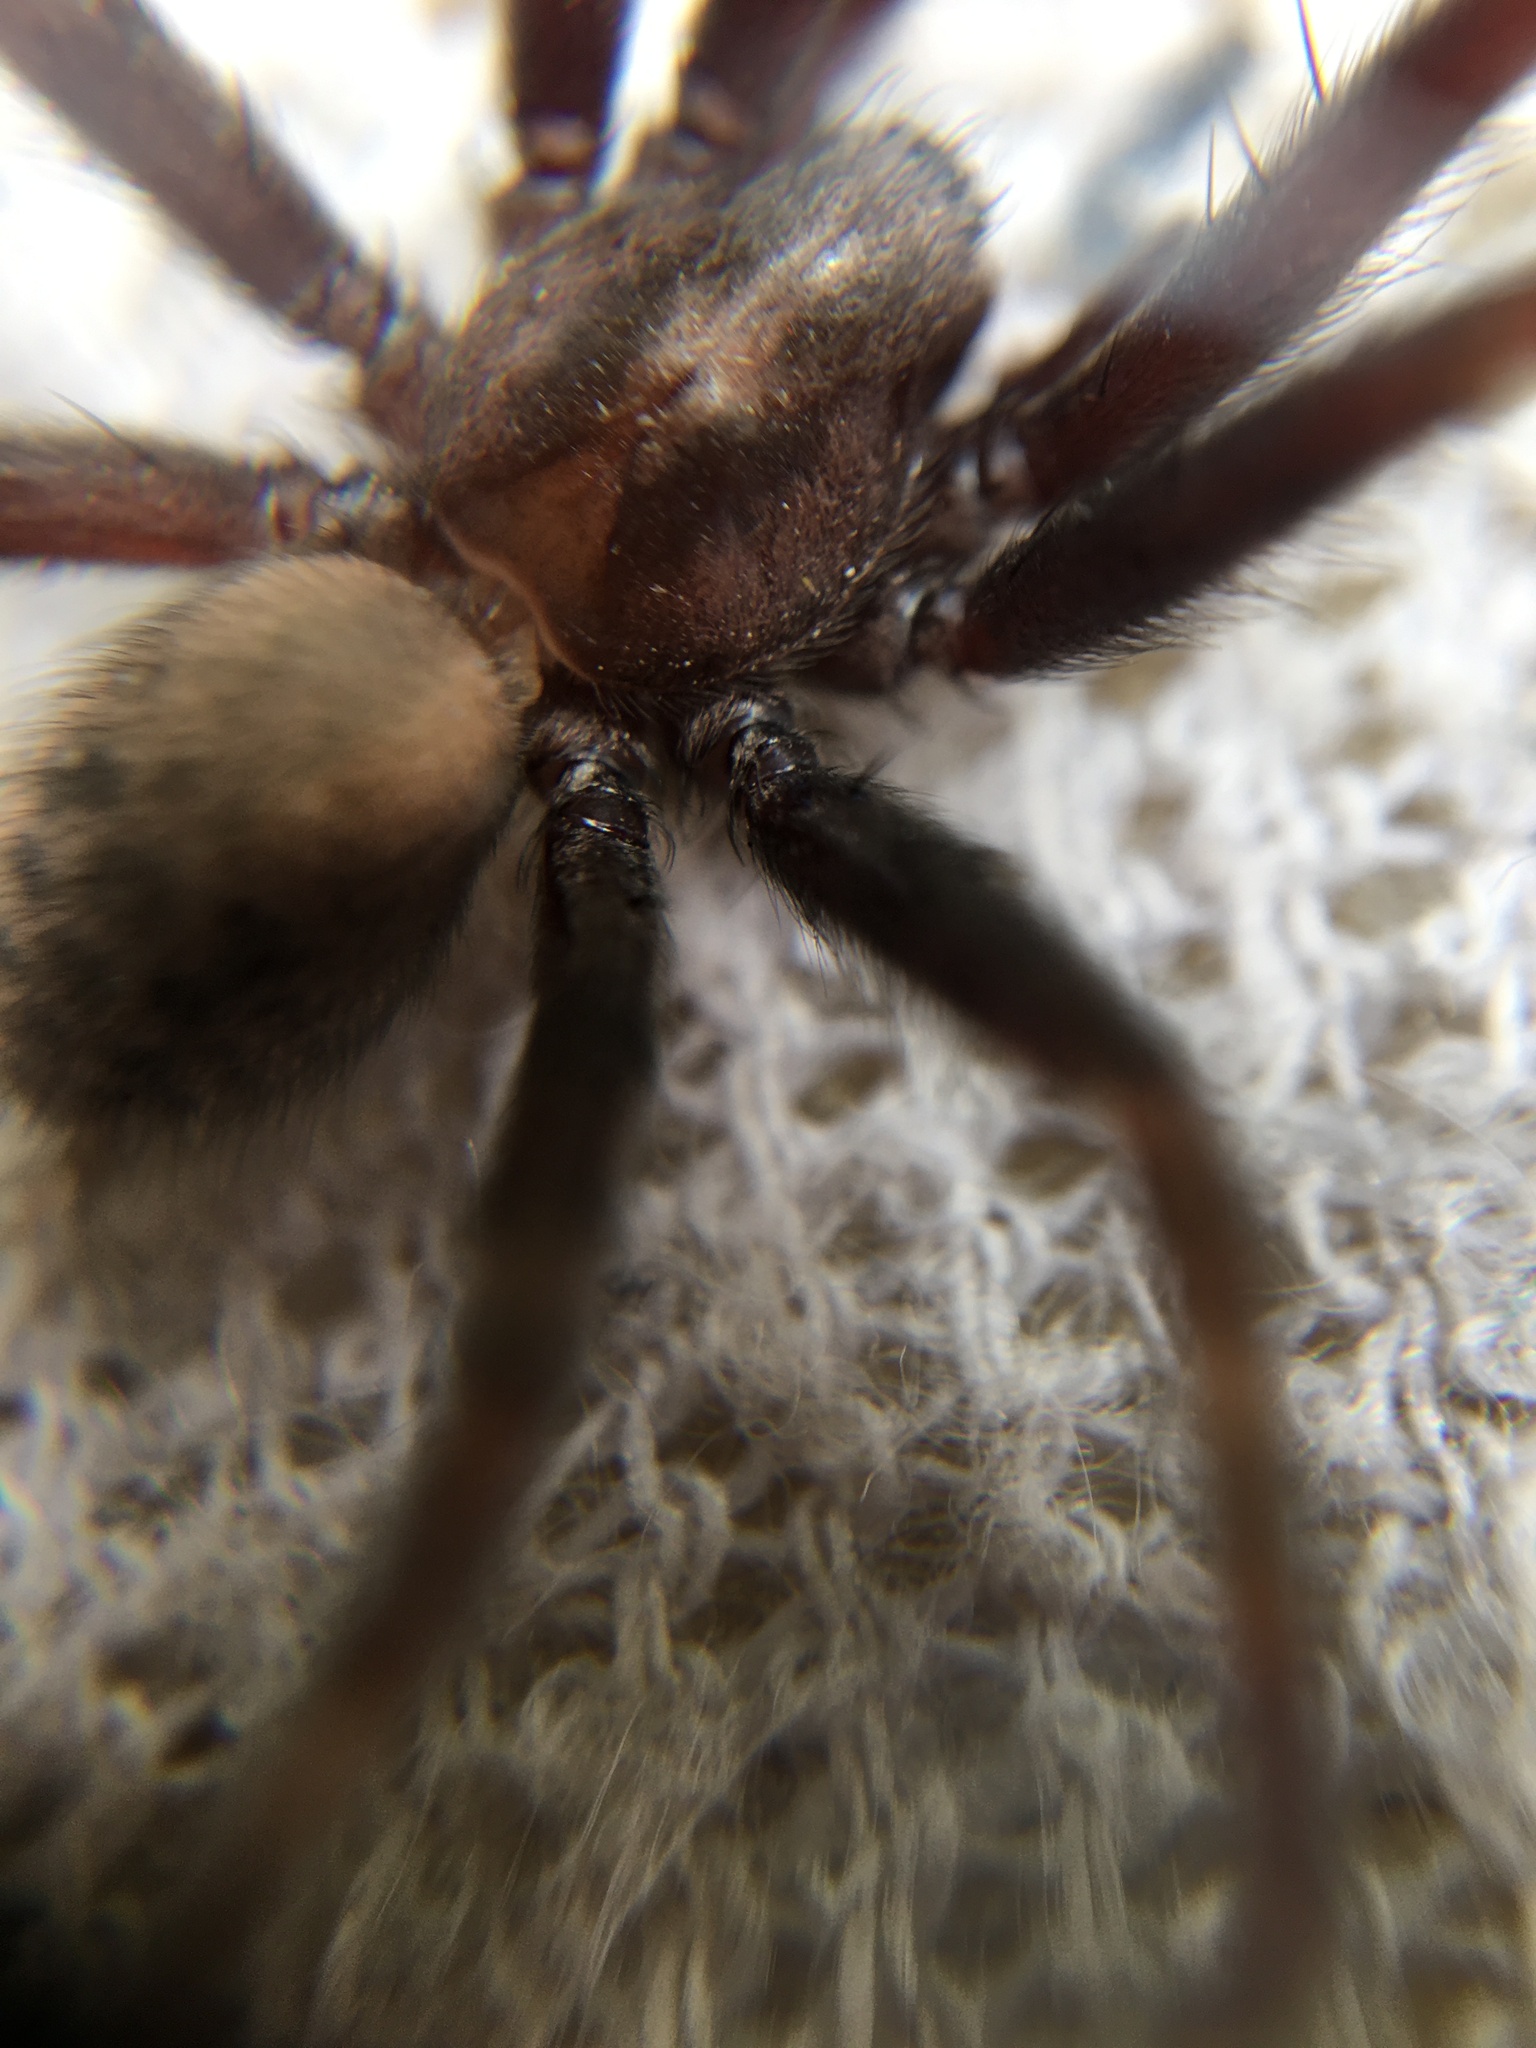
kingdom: Animalia
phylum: Arthropoda
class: Arachnida
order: Araneae
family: Agelenidae
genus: Tegenaria
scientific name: Tegenaria domestica
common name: Barn funnel weaver
